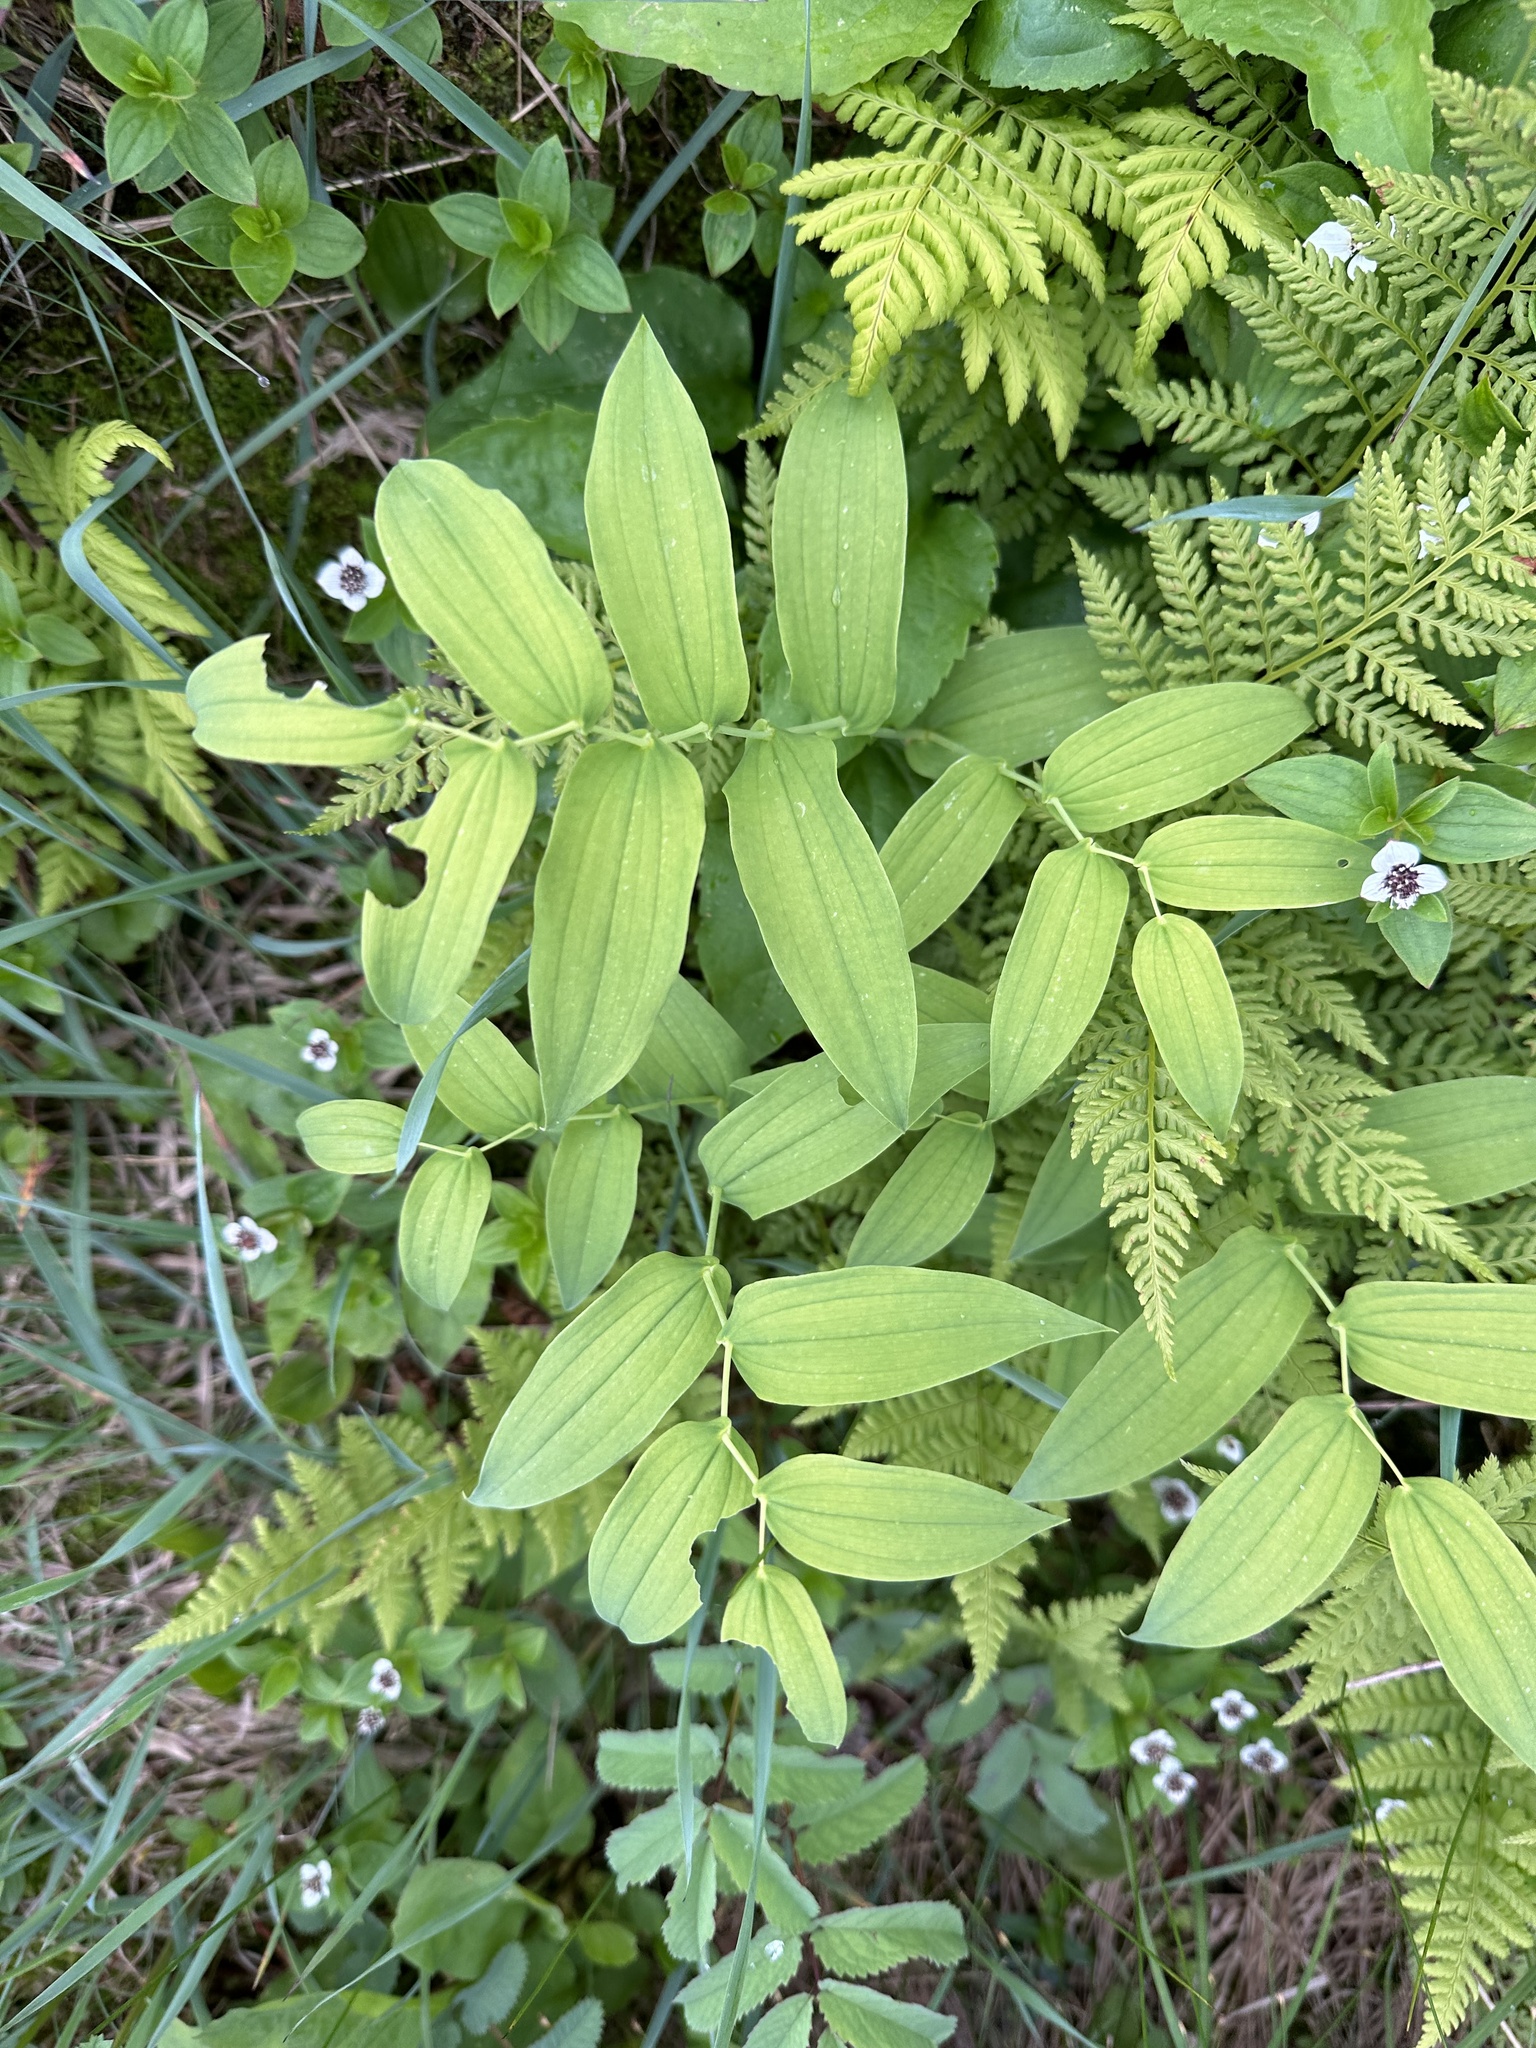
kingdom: Plantae
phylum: Tracheophyta
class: Liliopsida
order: Liliales
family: Liliaceae
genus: Streptopus
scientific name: Streptopus amplexifolius
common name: Clasp twisted stalk
